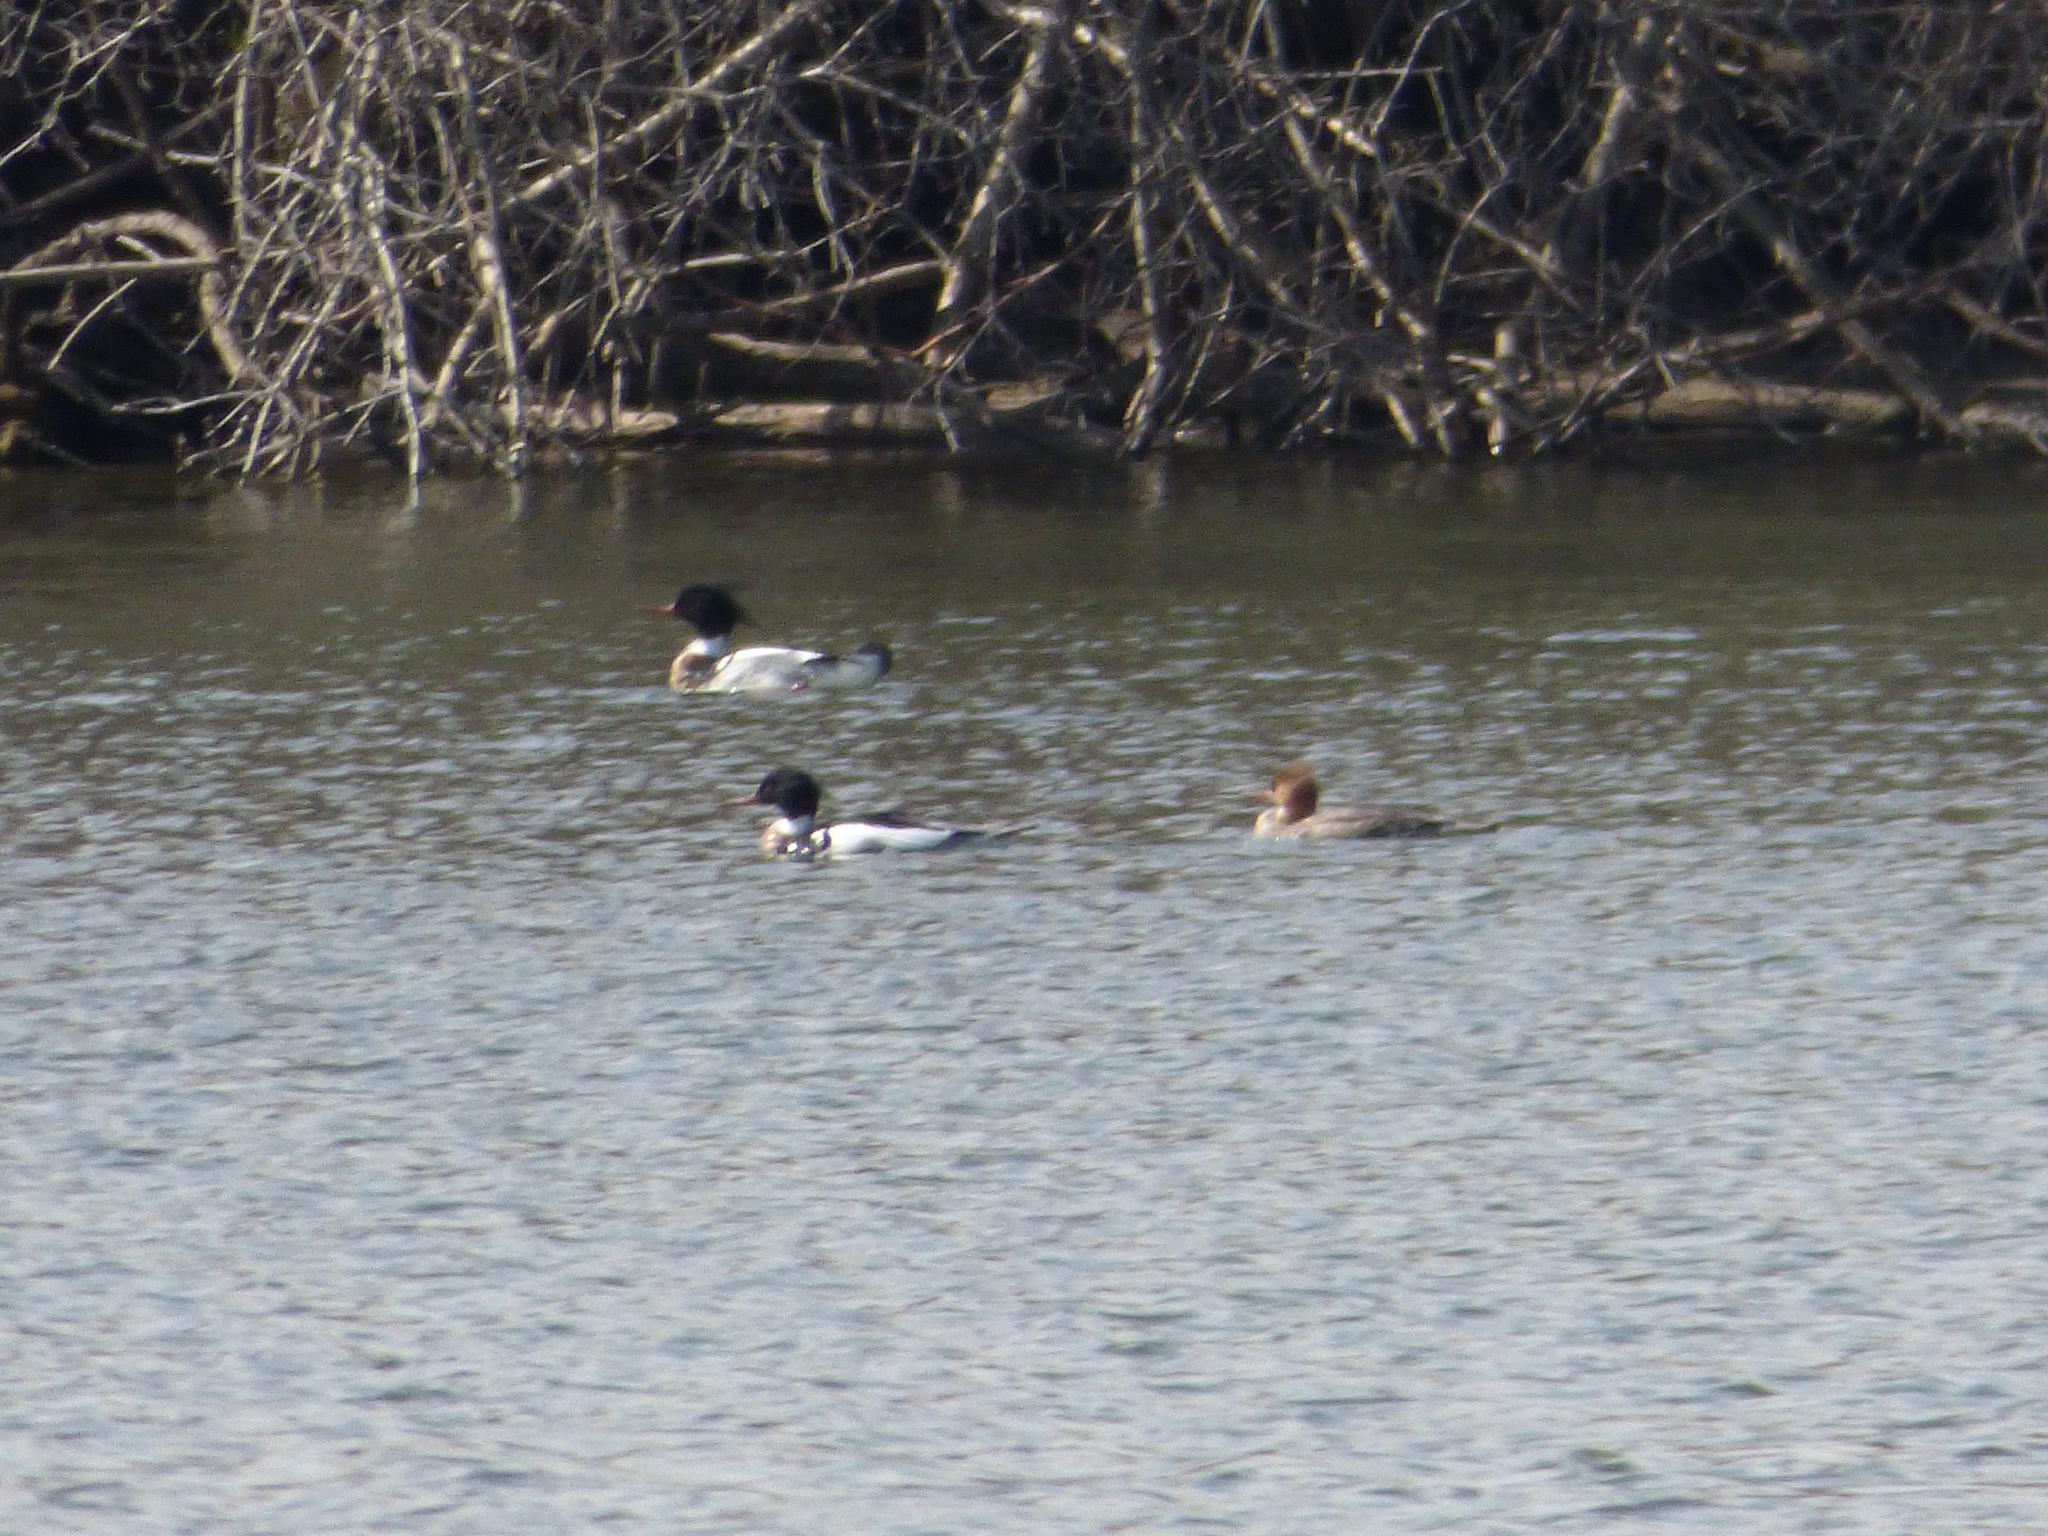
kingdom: Animalia
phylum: Chordata
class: Aves
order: Anseriformes
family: Anatidae
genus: Mergus
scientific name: Mergus serrator
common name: Red-breasted merganser
